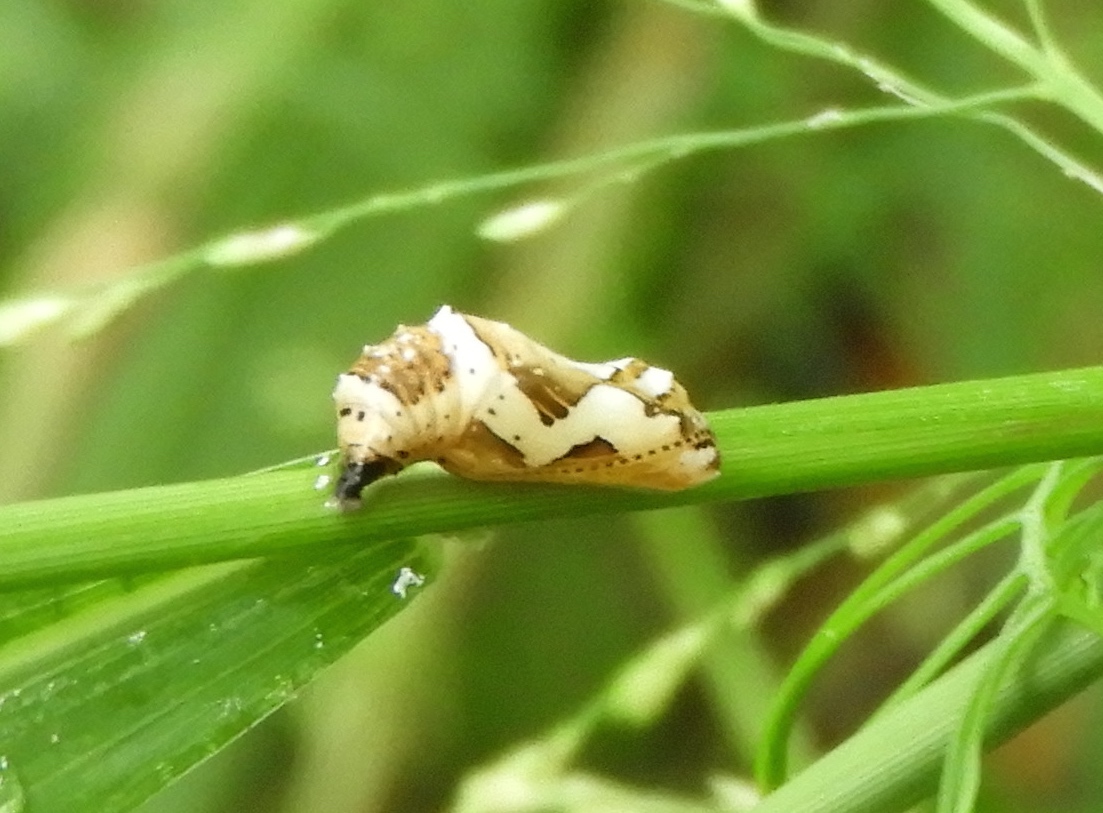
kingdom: Animalia
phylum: Arthropoda
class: Insecta
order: Lepidoptera
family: Nymphalidae
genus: Euptoieta
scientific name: Euptoieta hegesia
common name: Mexican fritillary
